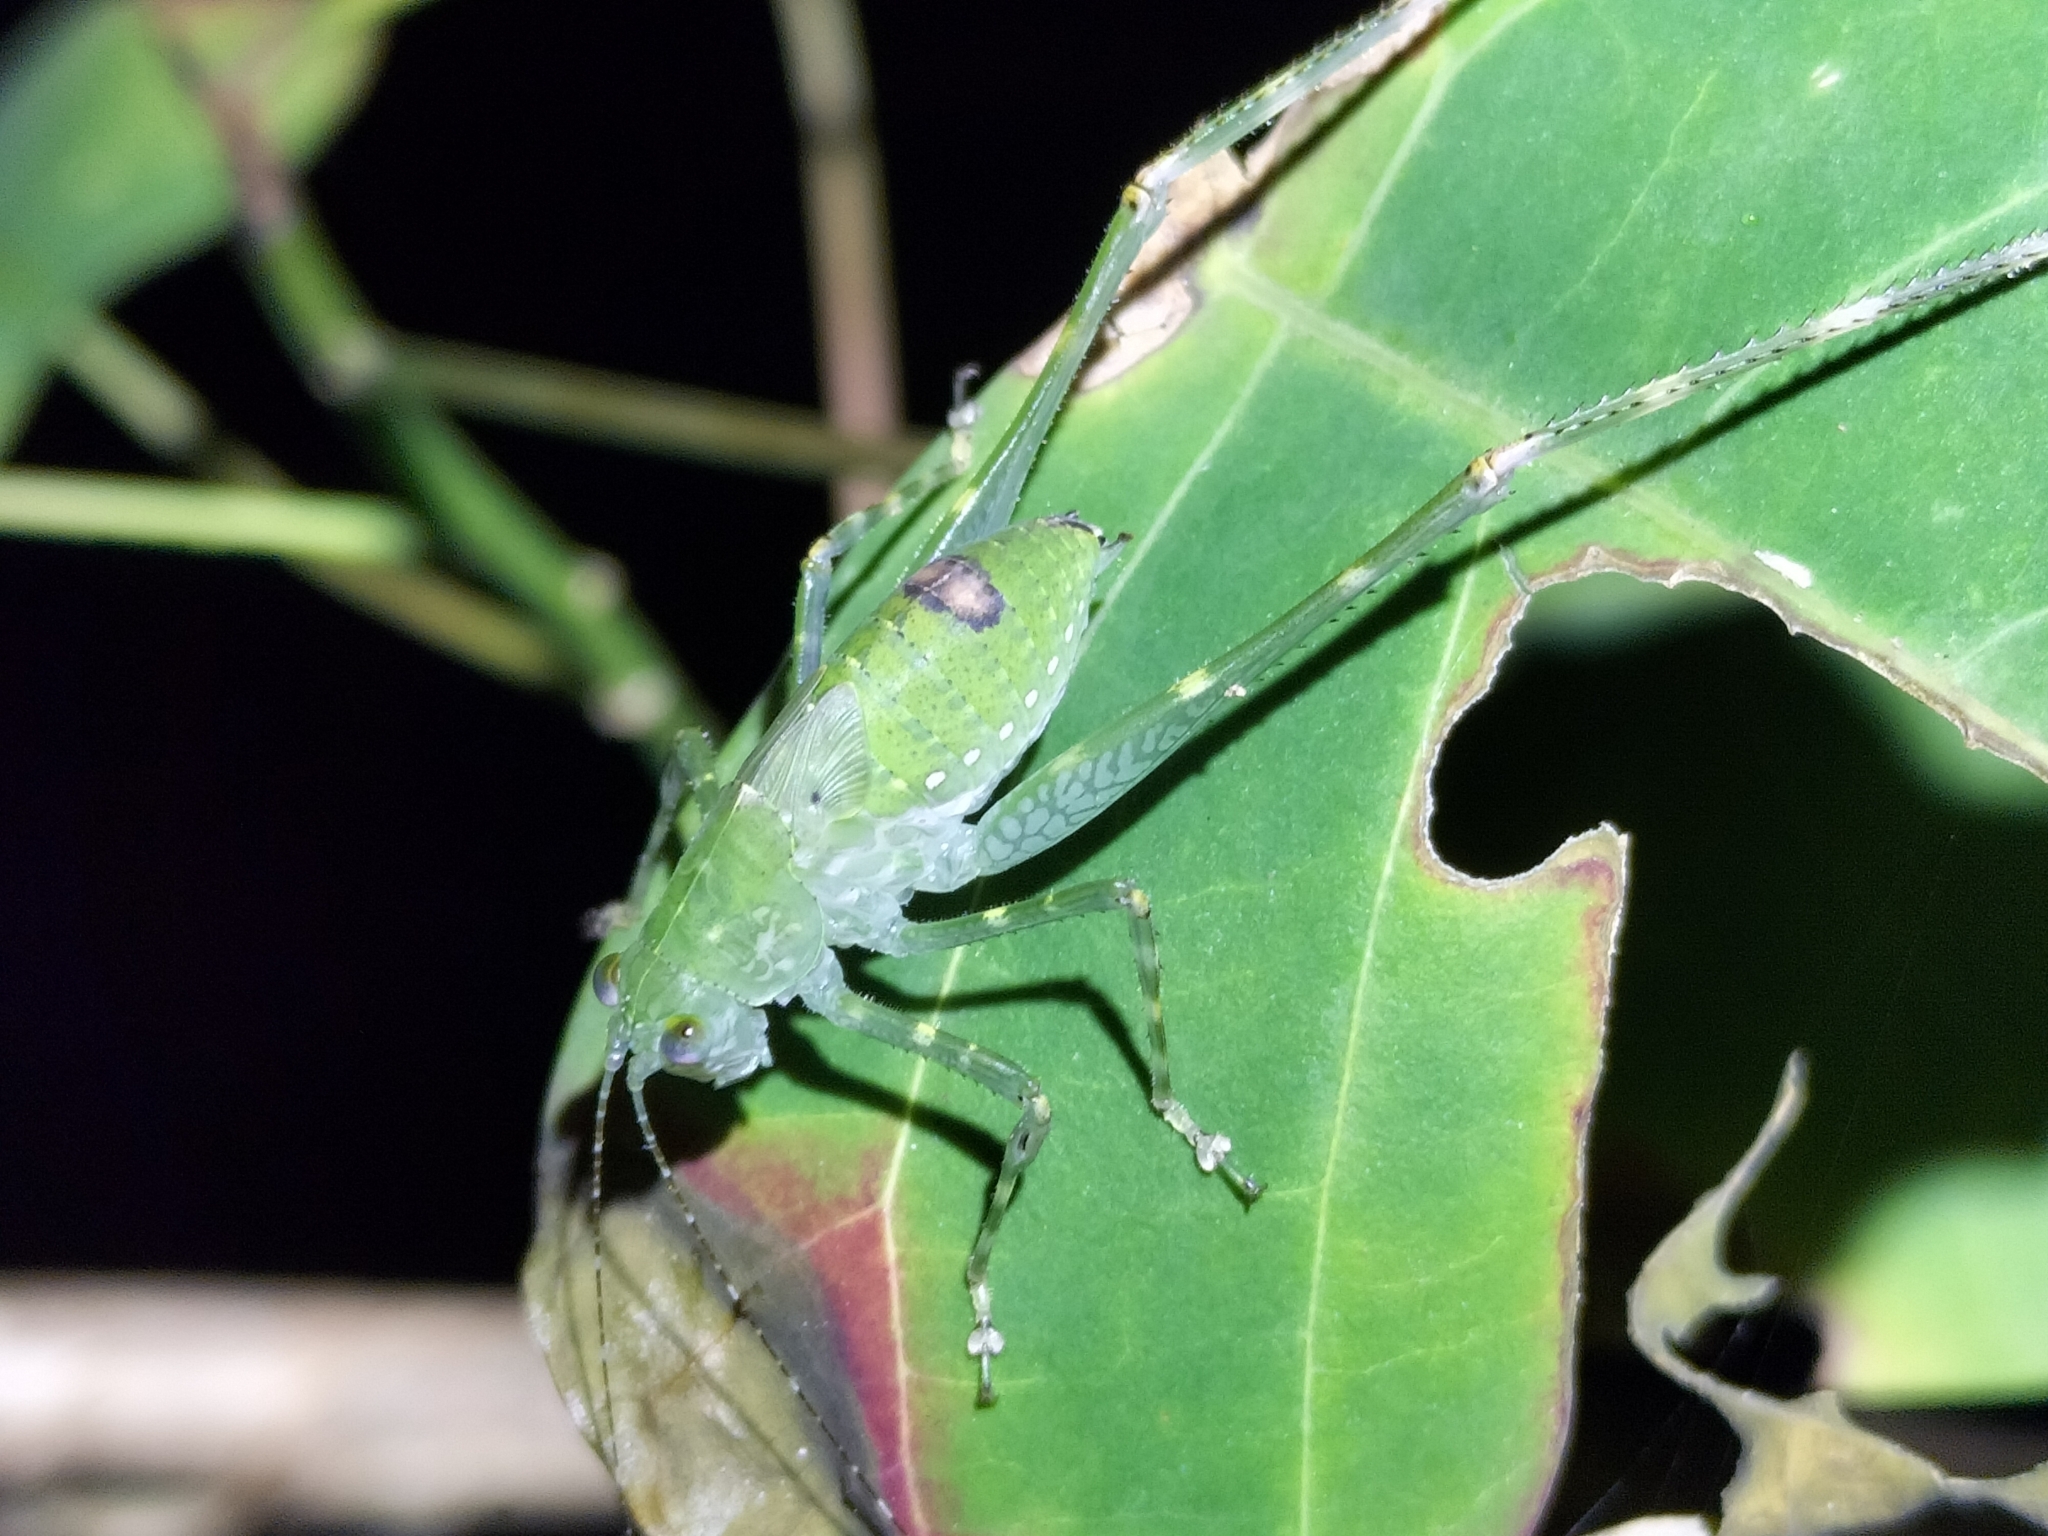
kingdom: Animalia
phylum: Arthropoda
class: Insecta
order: Orthoptera
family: Tettigoniidae
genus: Caedicia
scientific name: Caedicia webberi
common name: Webber's caedicia
